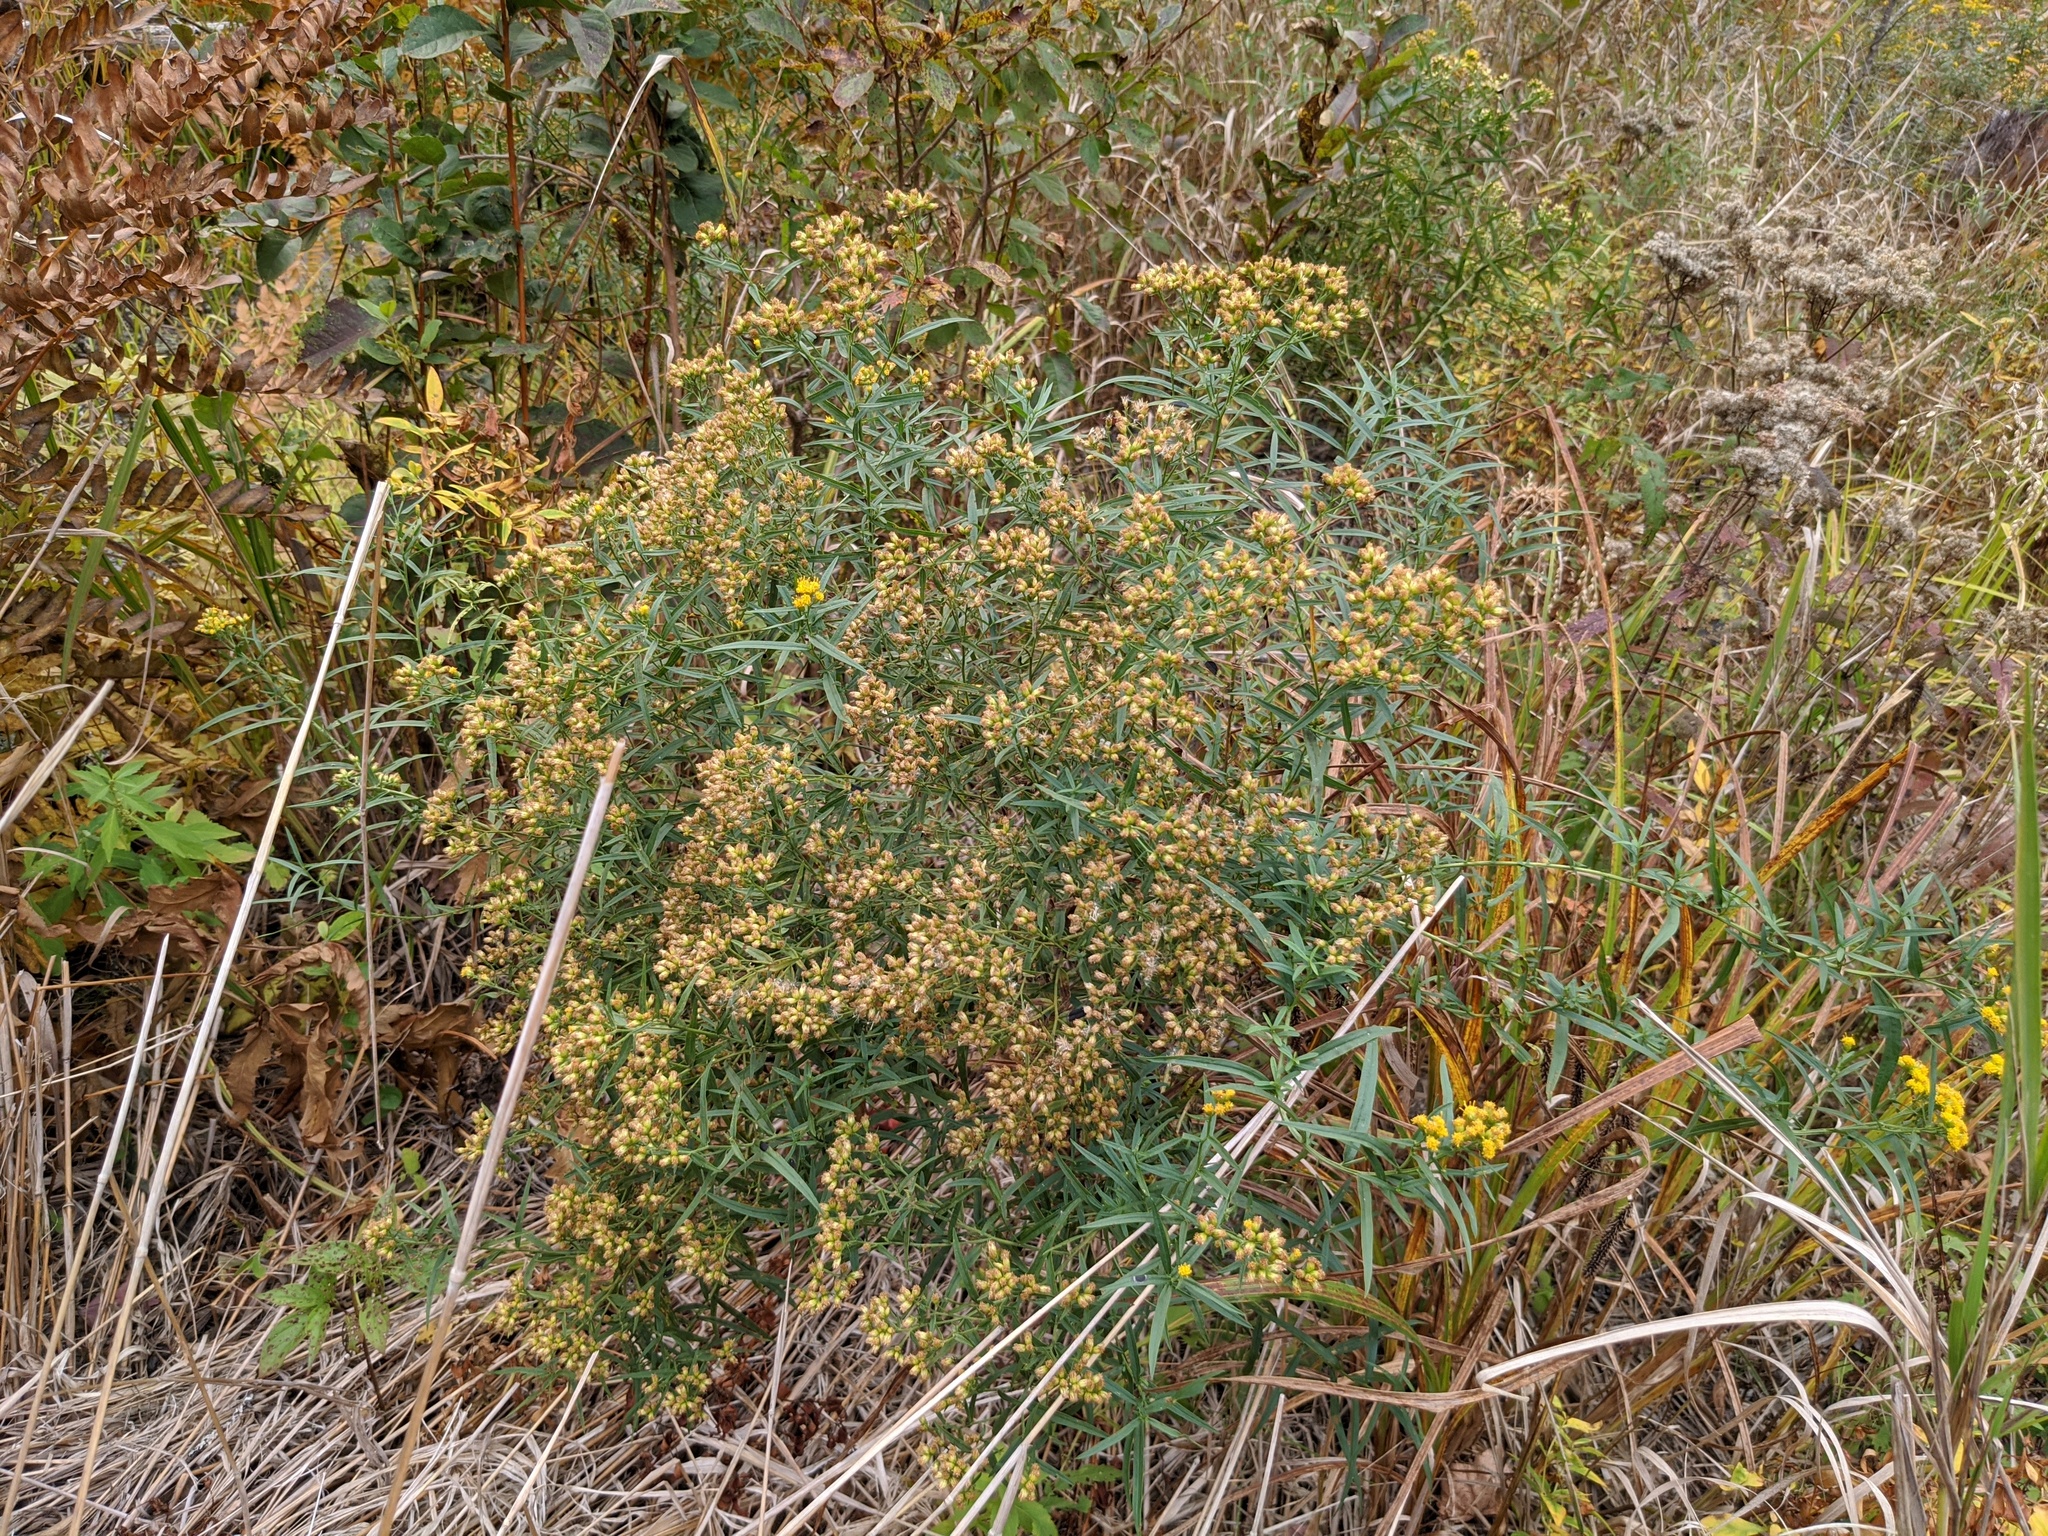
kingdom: Plantae
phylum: Tracheophyta
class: Magnoliopsida
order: Asterales
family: Asteraceae
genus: Euthamia
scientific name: Euthamia graminifolia
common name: Common goldentop
